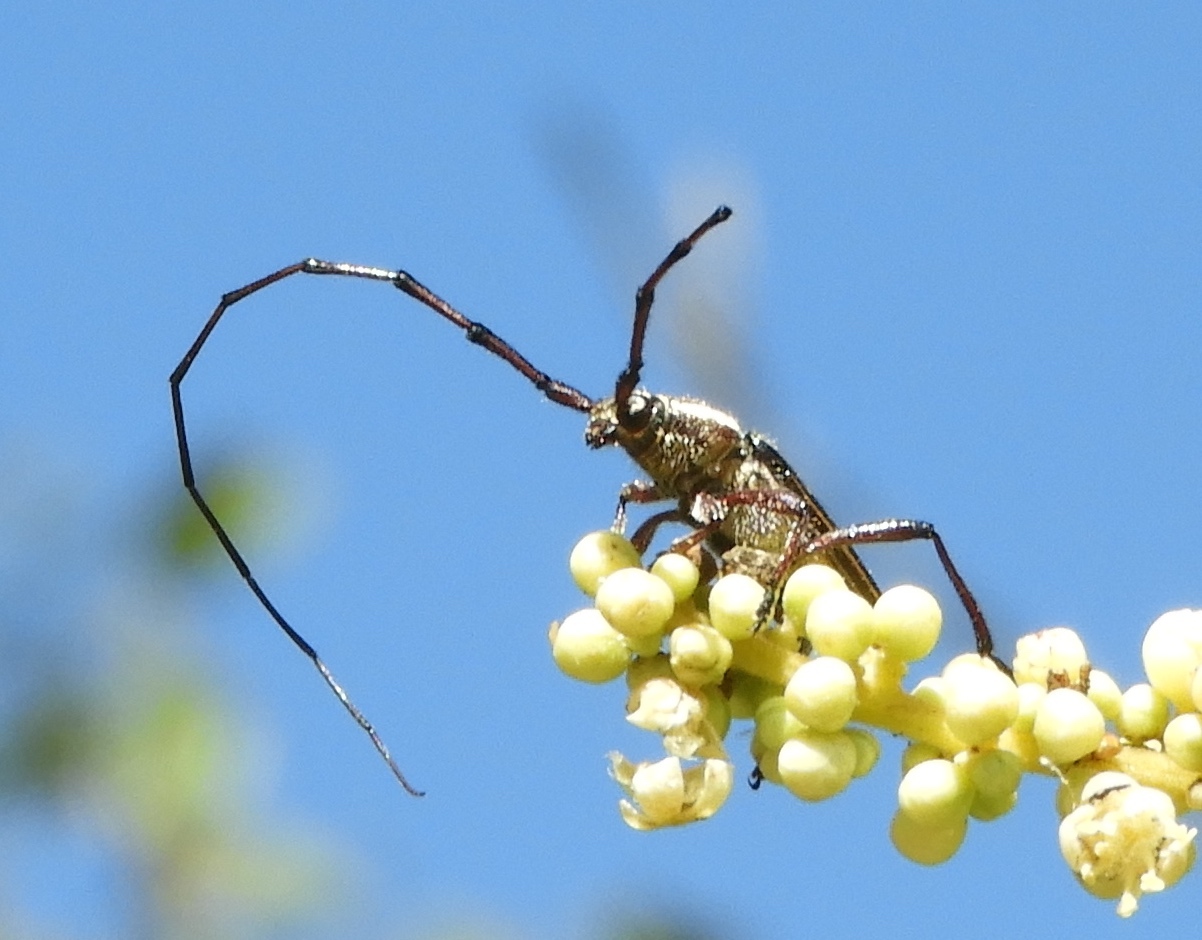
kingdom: Animalia
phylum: Arthropoda
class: Insecta
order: Coleoptera
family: Cerambycidae
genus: Sphaenothecus
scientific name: Sphaenothecus maccartyi
